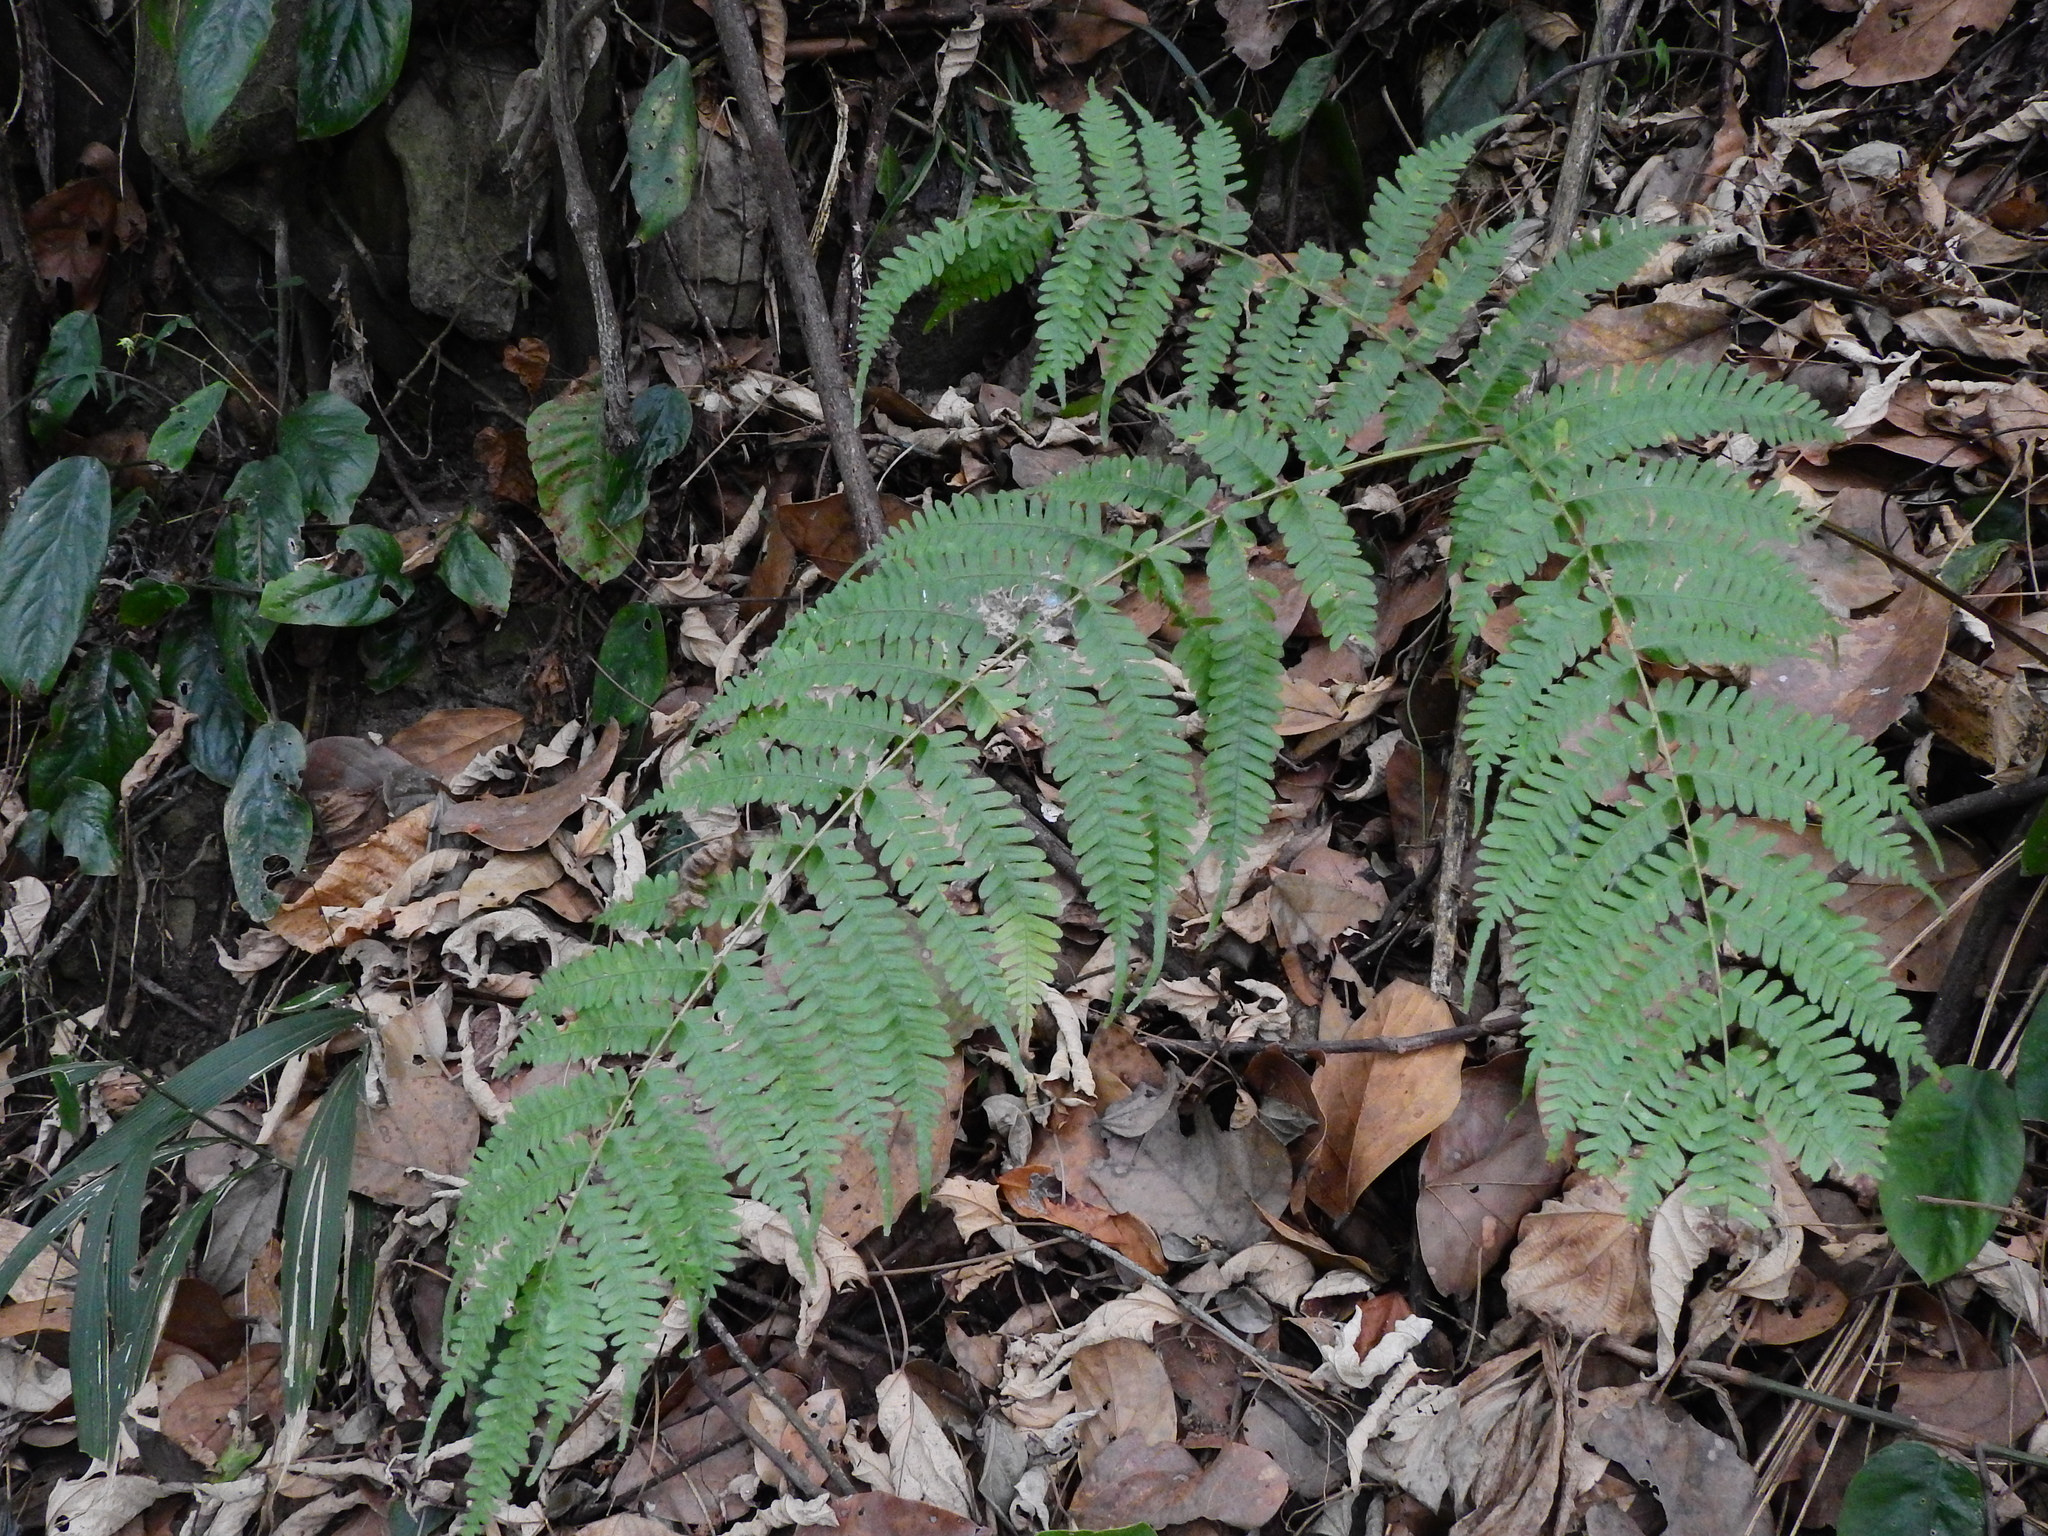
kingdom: Plantae
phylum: Tracheophyta
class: Polypodiopsida
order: Polypodiales
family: Pteridaceae
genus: Pteris
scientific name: Pteris longipes
